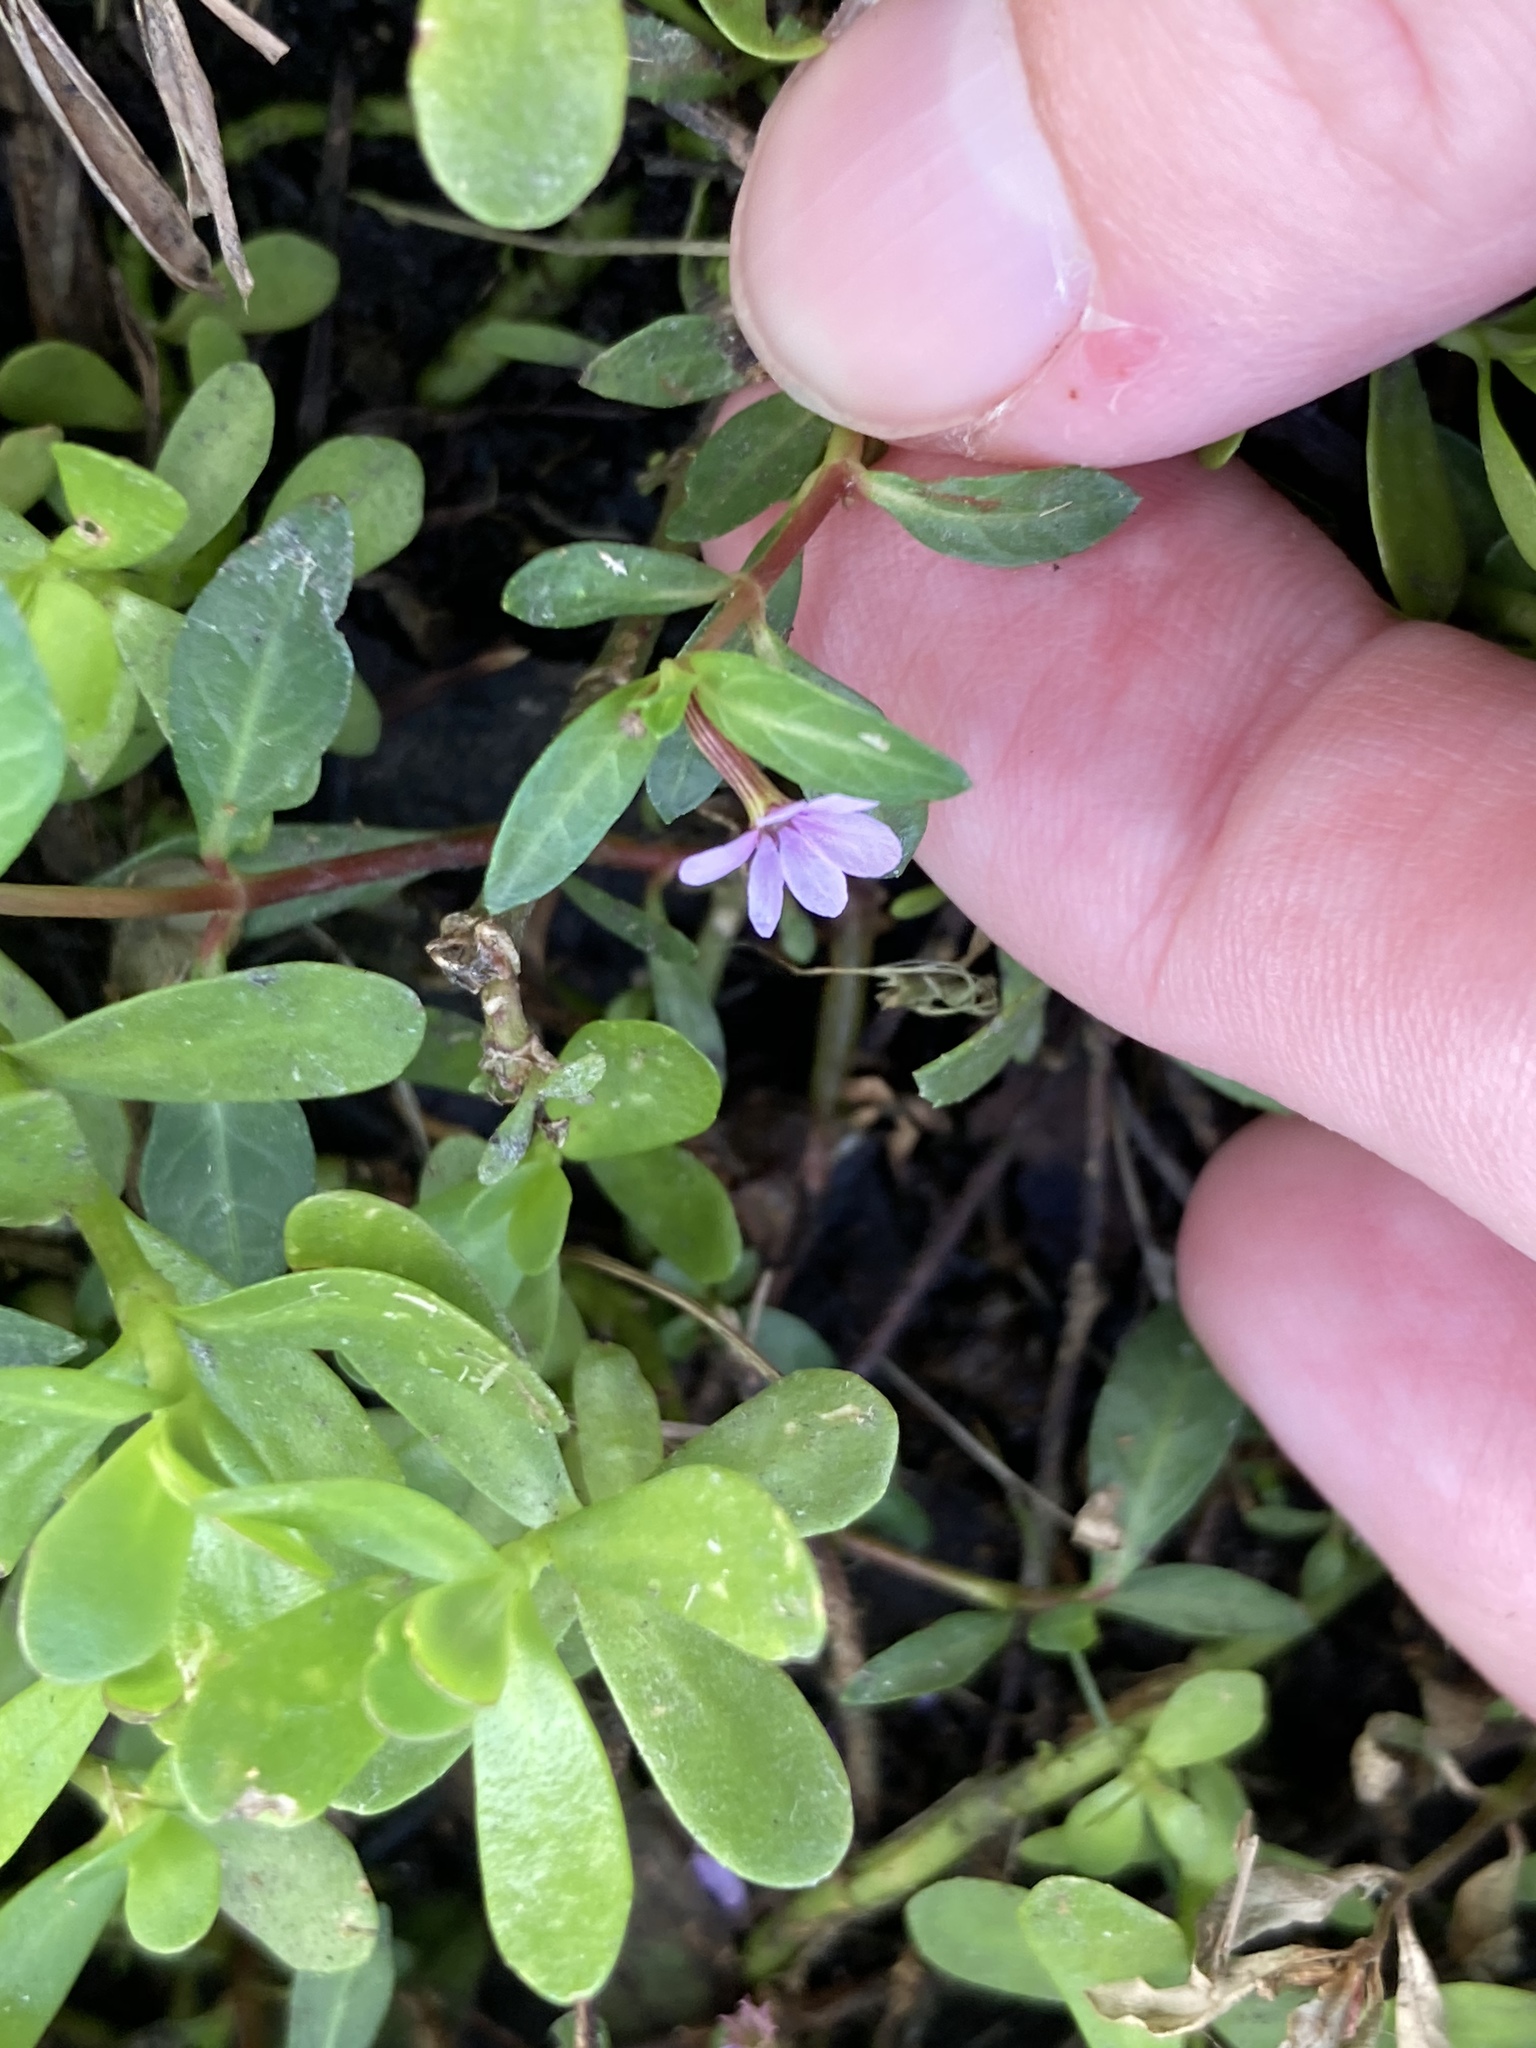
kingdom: Plantae
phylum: Tracheophyta
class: Magnoliopsida
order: Myrtales
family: Lythraceae
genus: Cuphea
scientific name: Cuphea strigulosa
